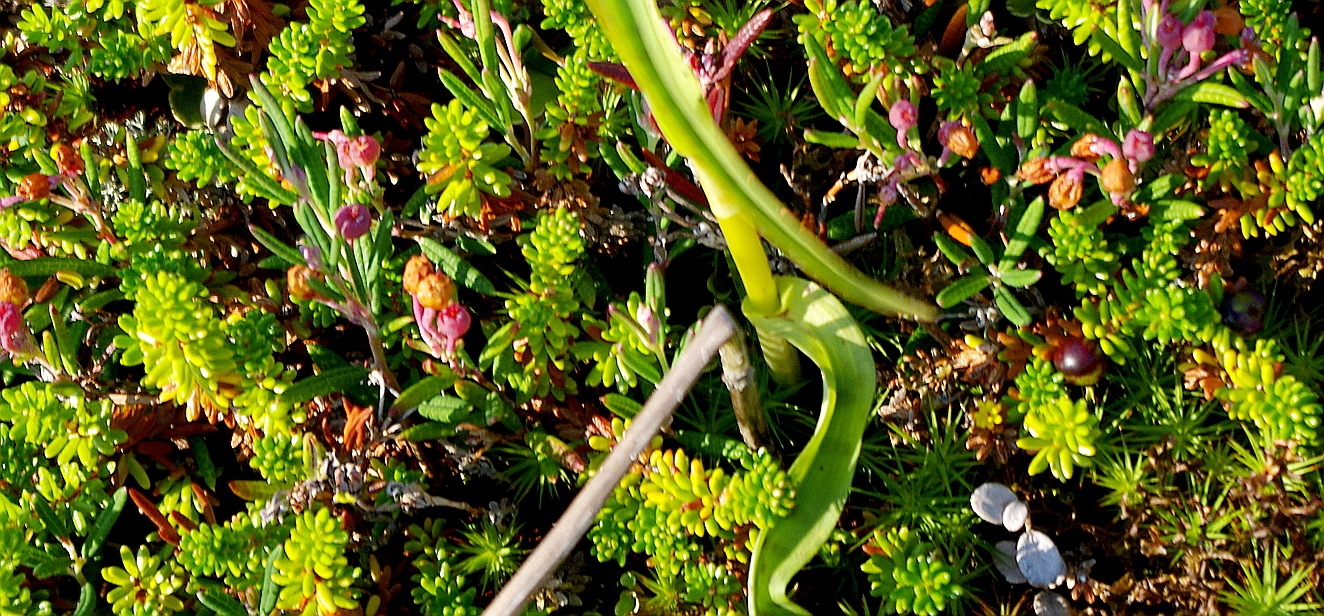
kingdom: Plantae
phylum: Tracheophyta
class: Liliopsida
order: Asparagales
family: Orchidaceae
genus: Dactylorhiza
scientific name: Dactylorhiza maculata
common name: Heath spotted-orchid
